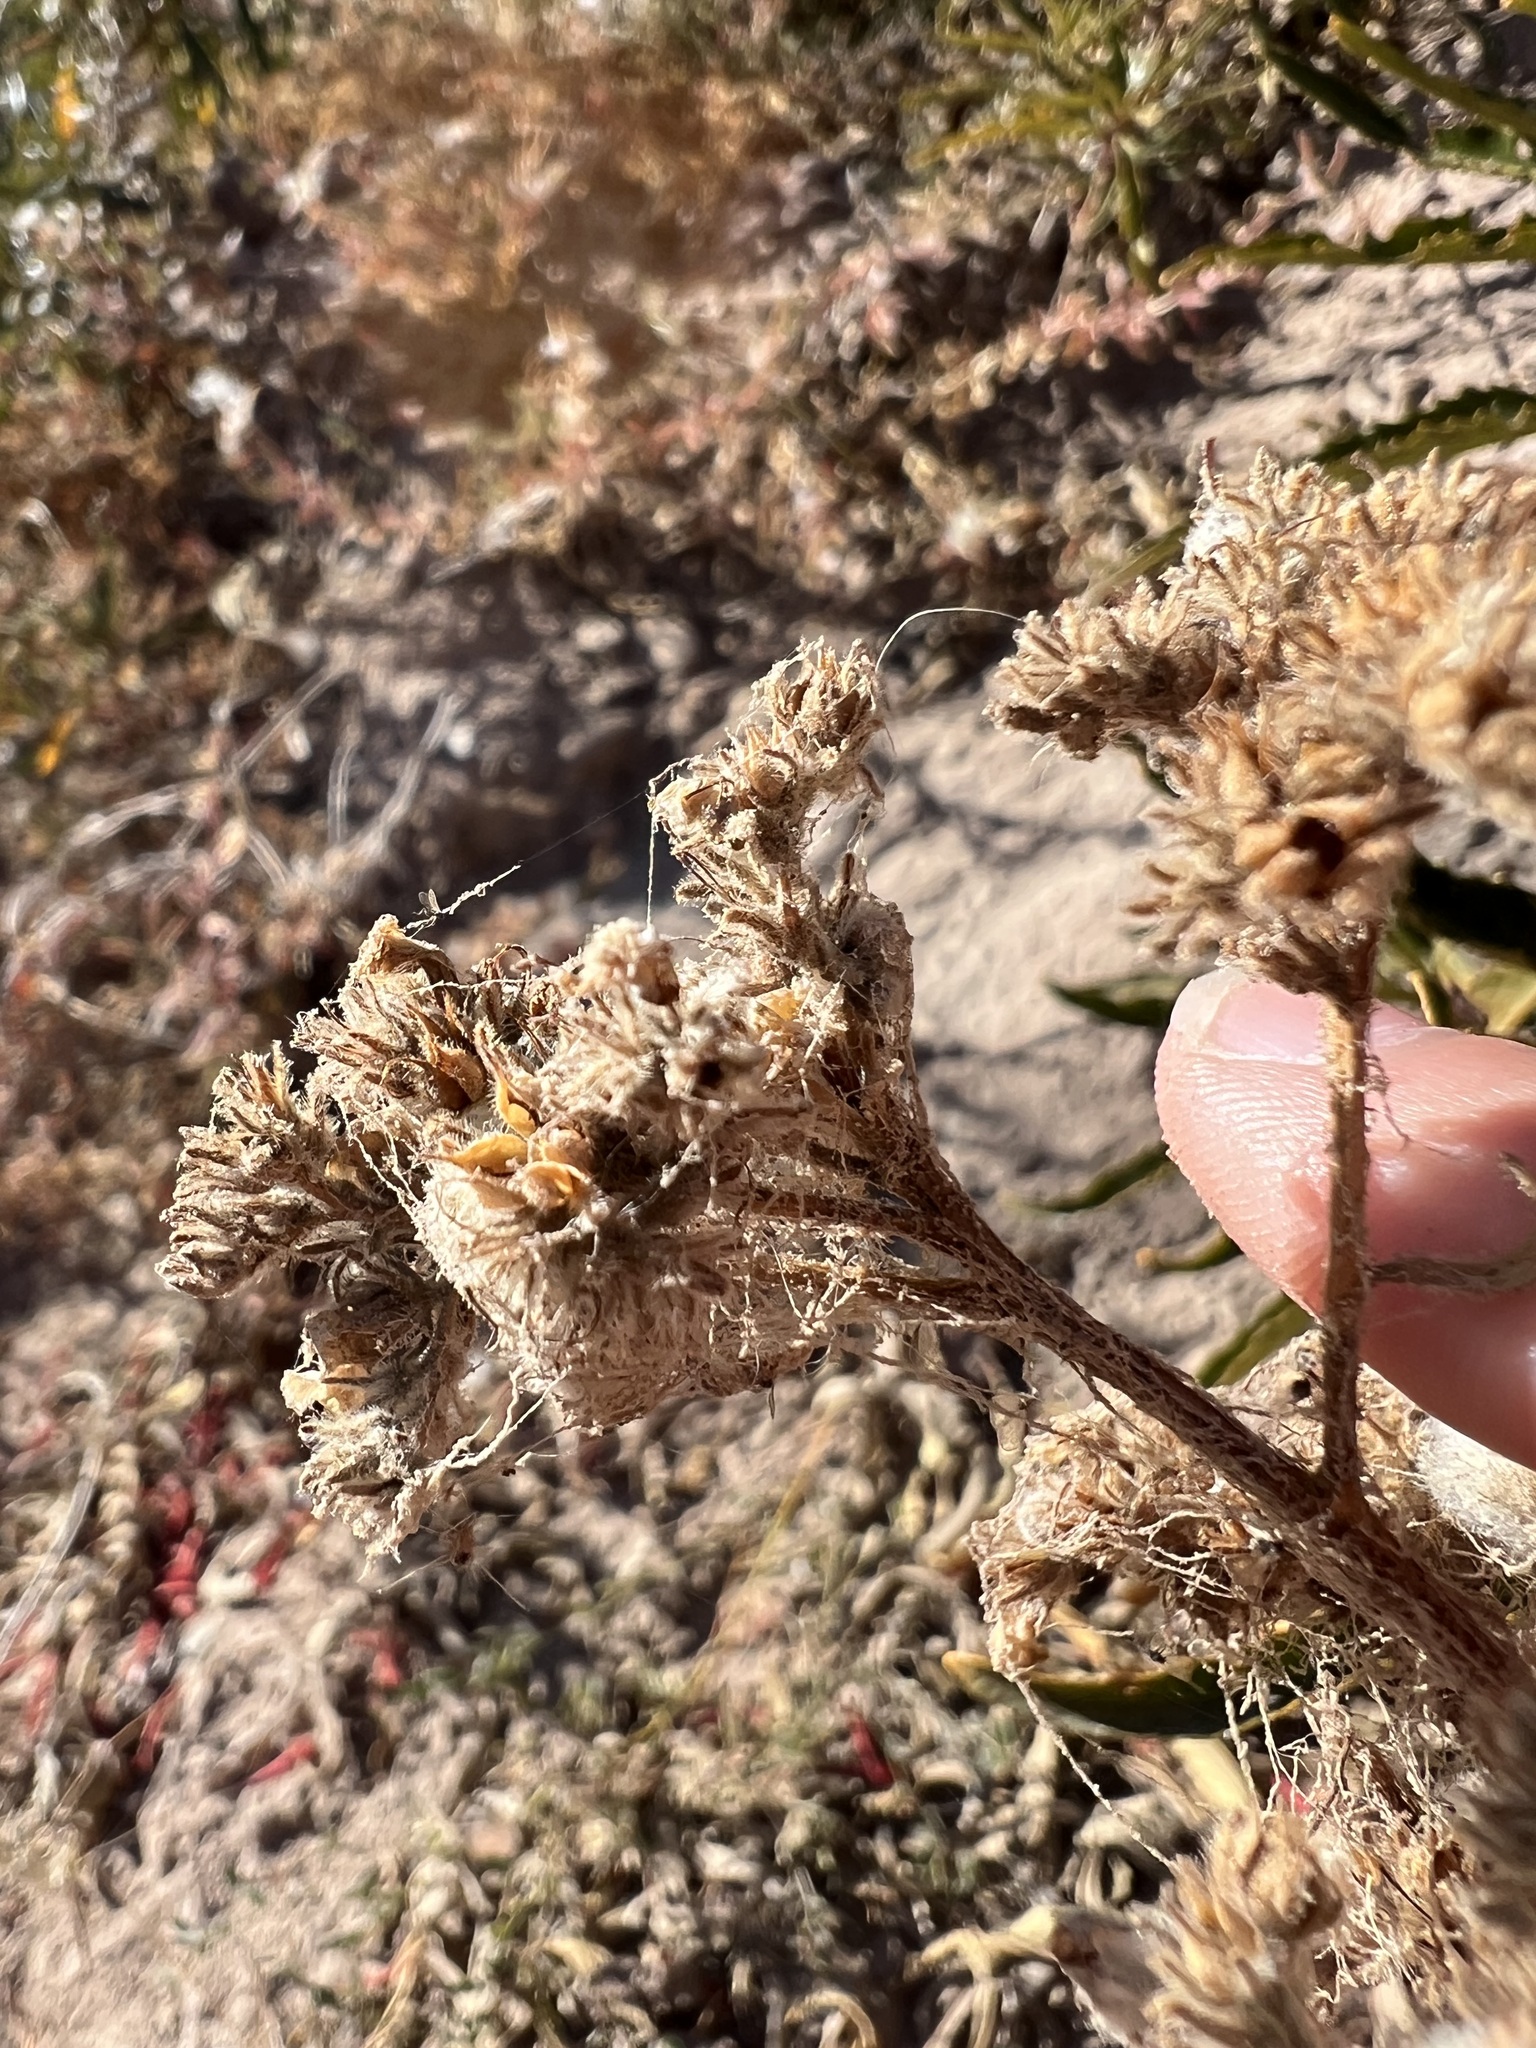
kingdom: Plantae
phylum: Tracheophyta
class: Magnoliopsida
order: Boraginales
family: Namaceae
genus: Eriodictyon
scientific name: Eriodictyon trichocalyx
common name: Hairy yerba-santa
